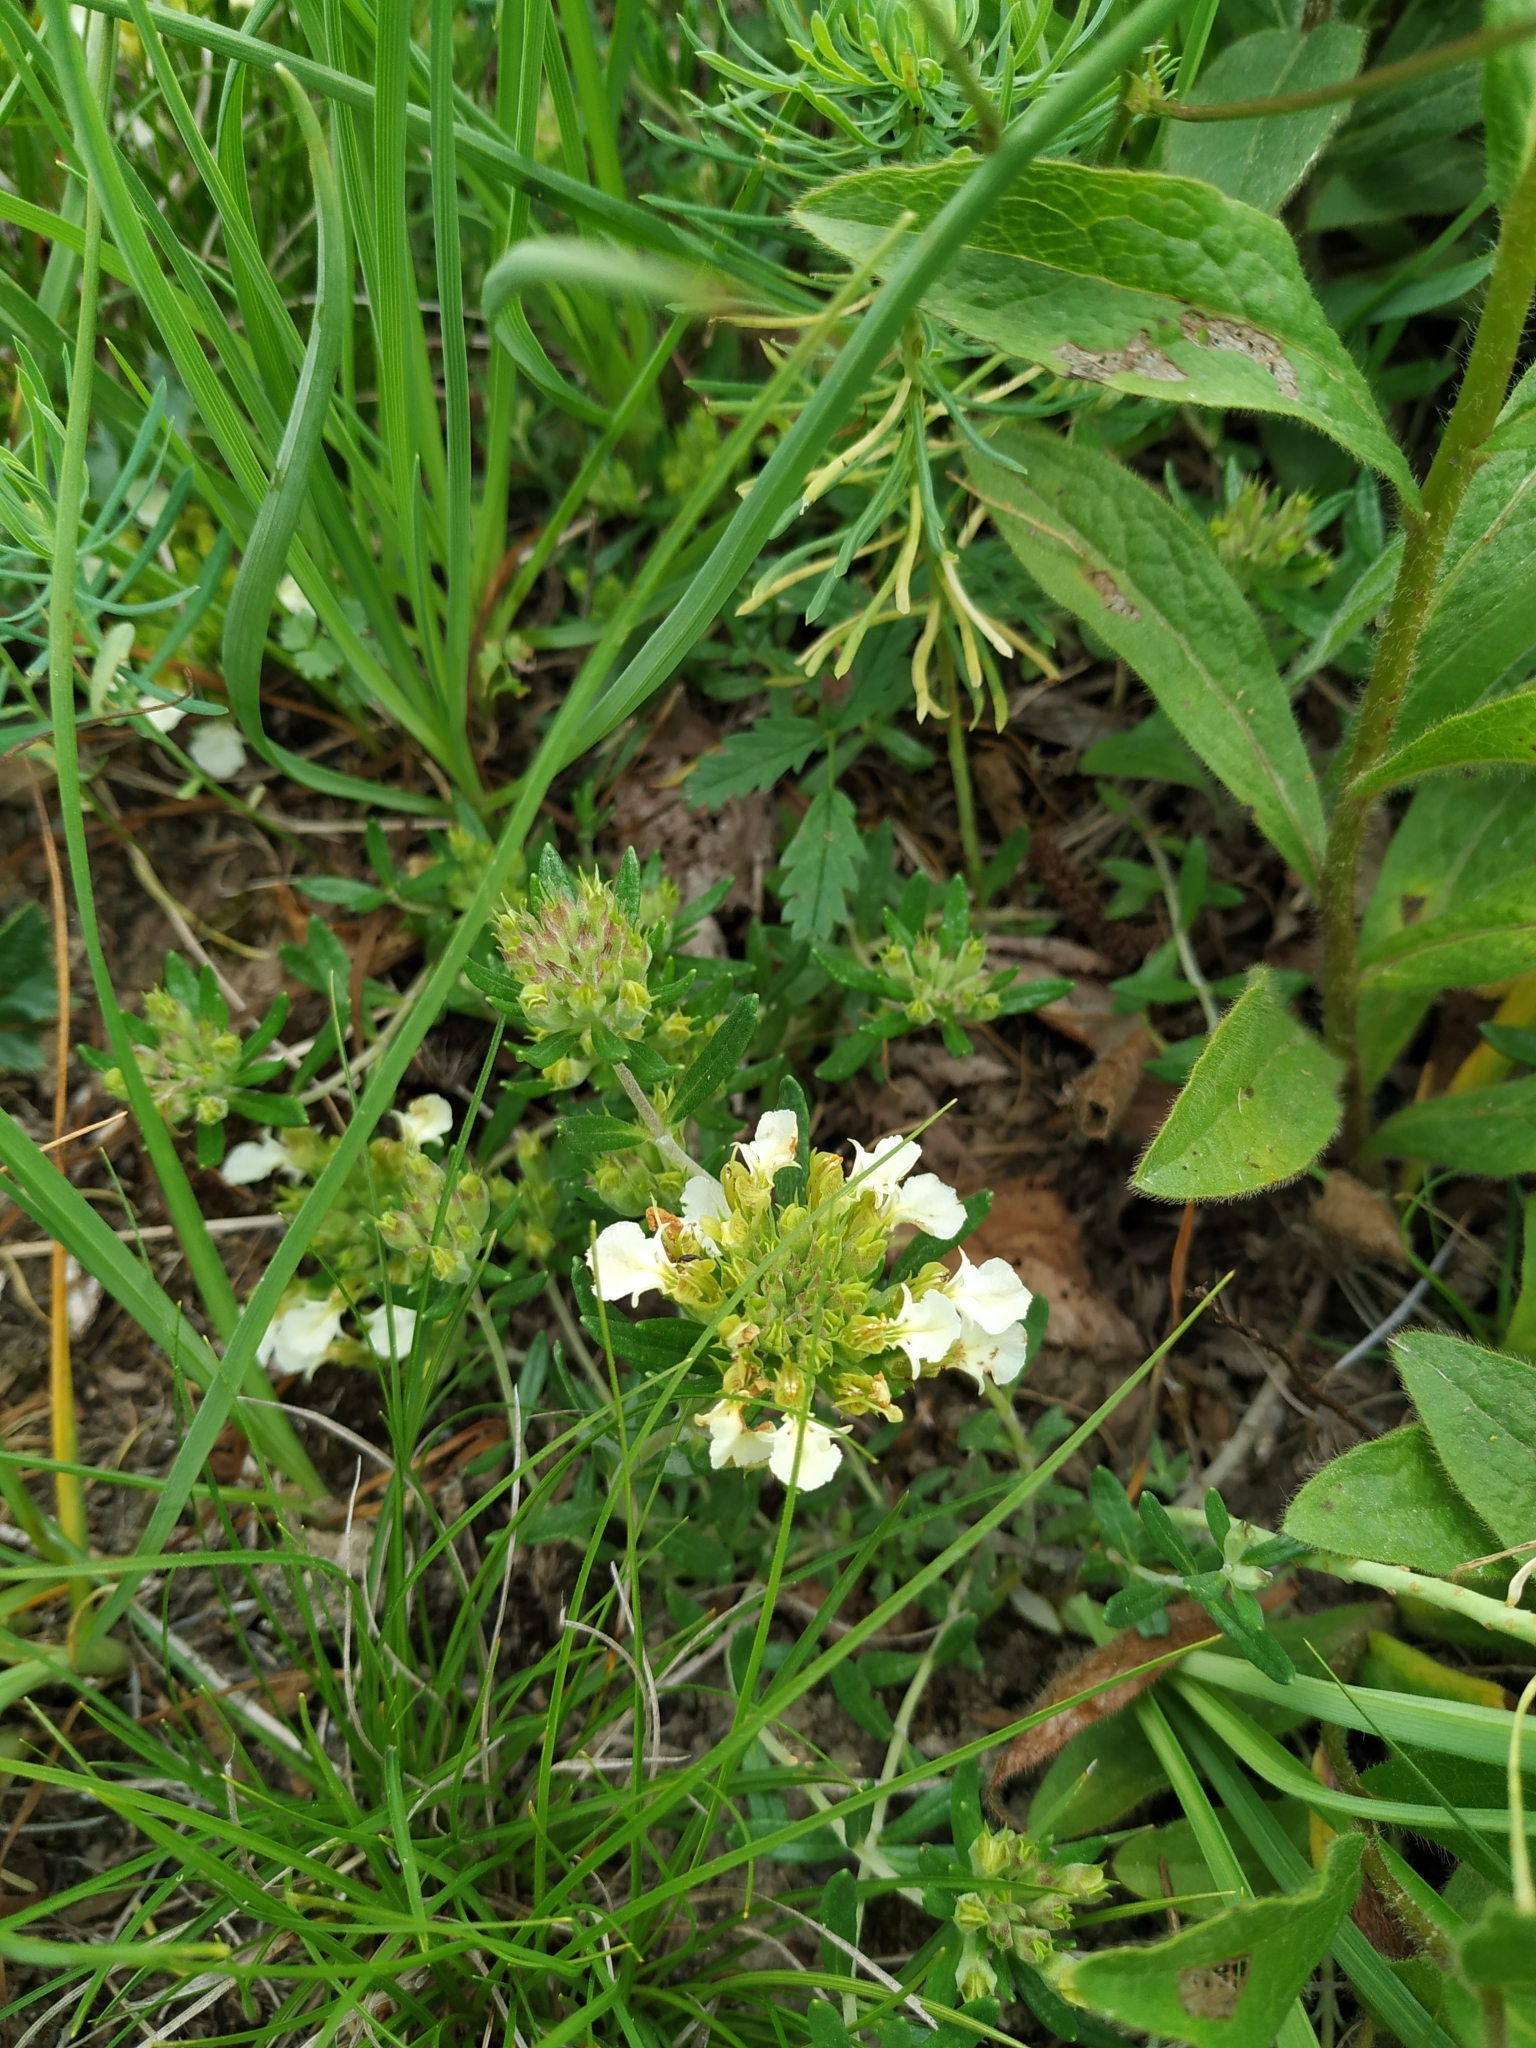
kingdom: Plantae
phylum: Tracheophyta
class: Magnoliopsida
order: Lamiales
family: Lamiaceae
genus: Teucrium
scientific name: Teucrium montanum
